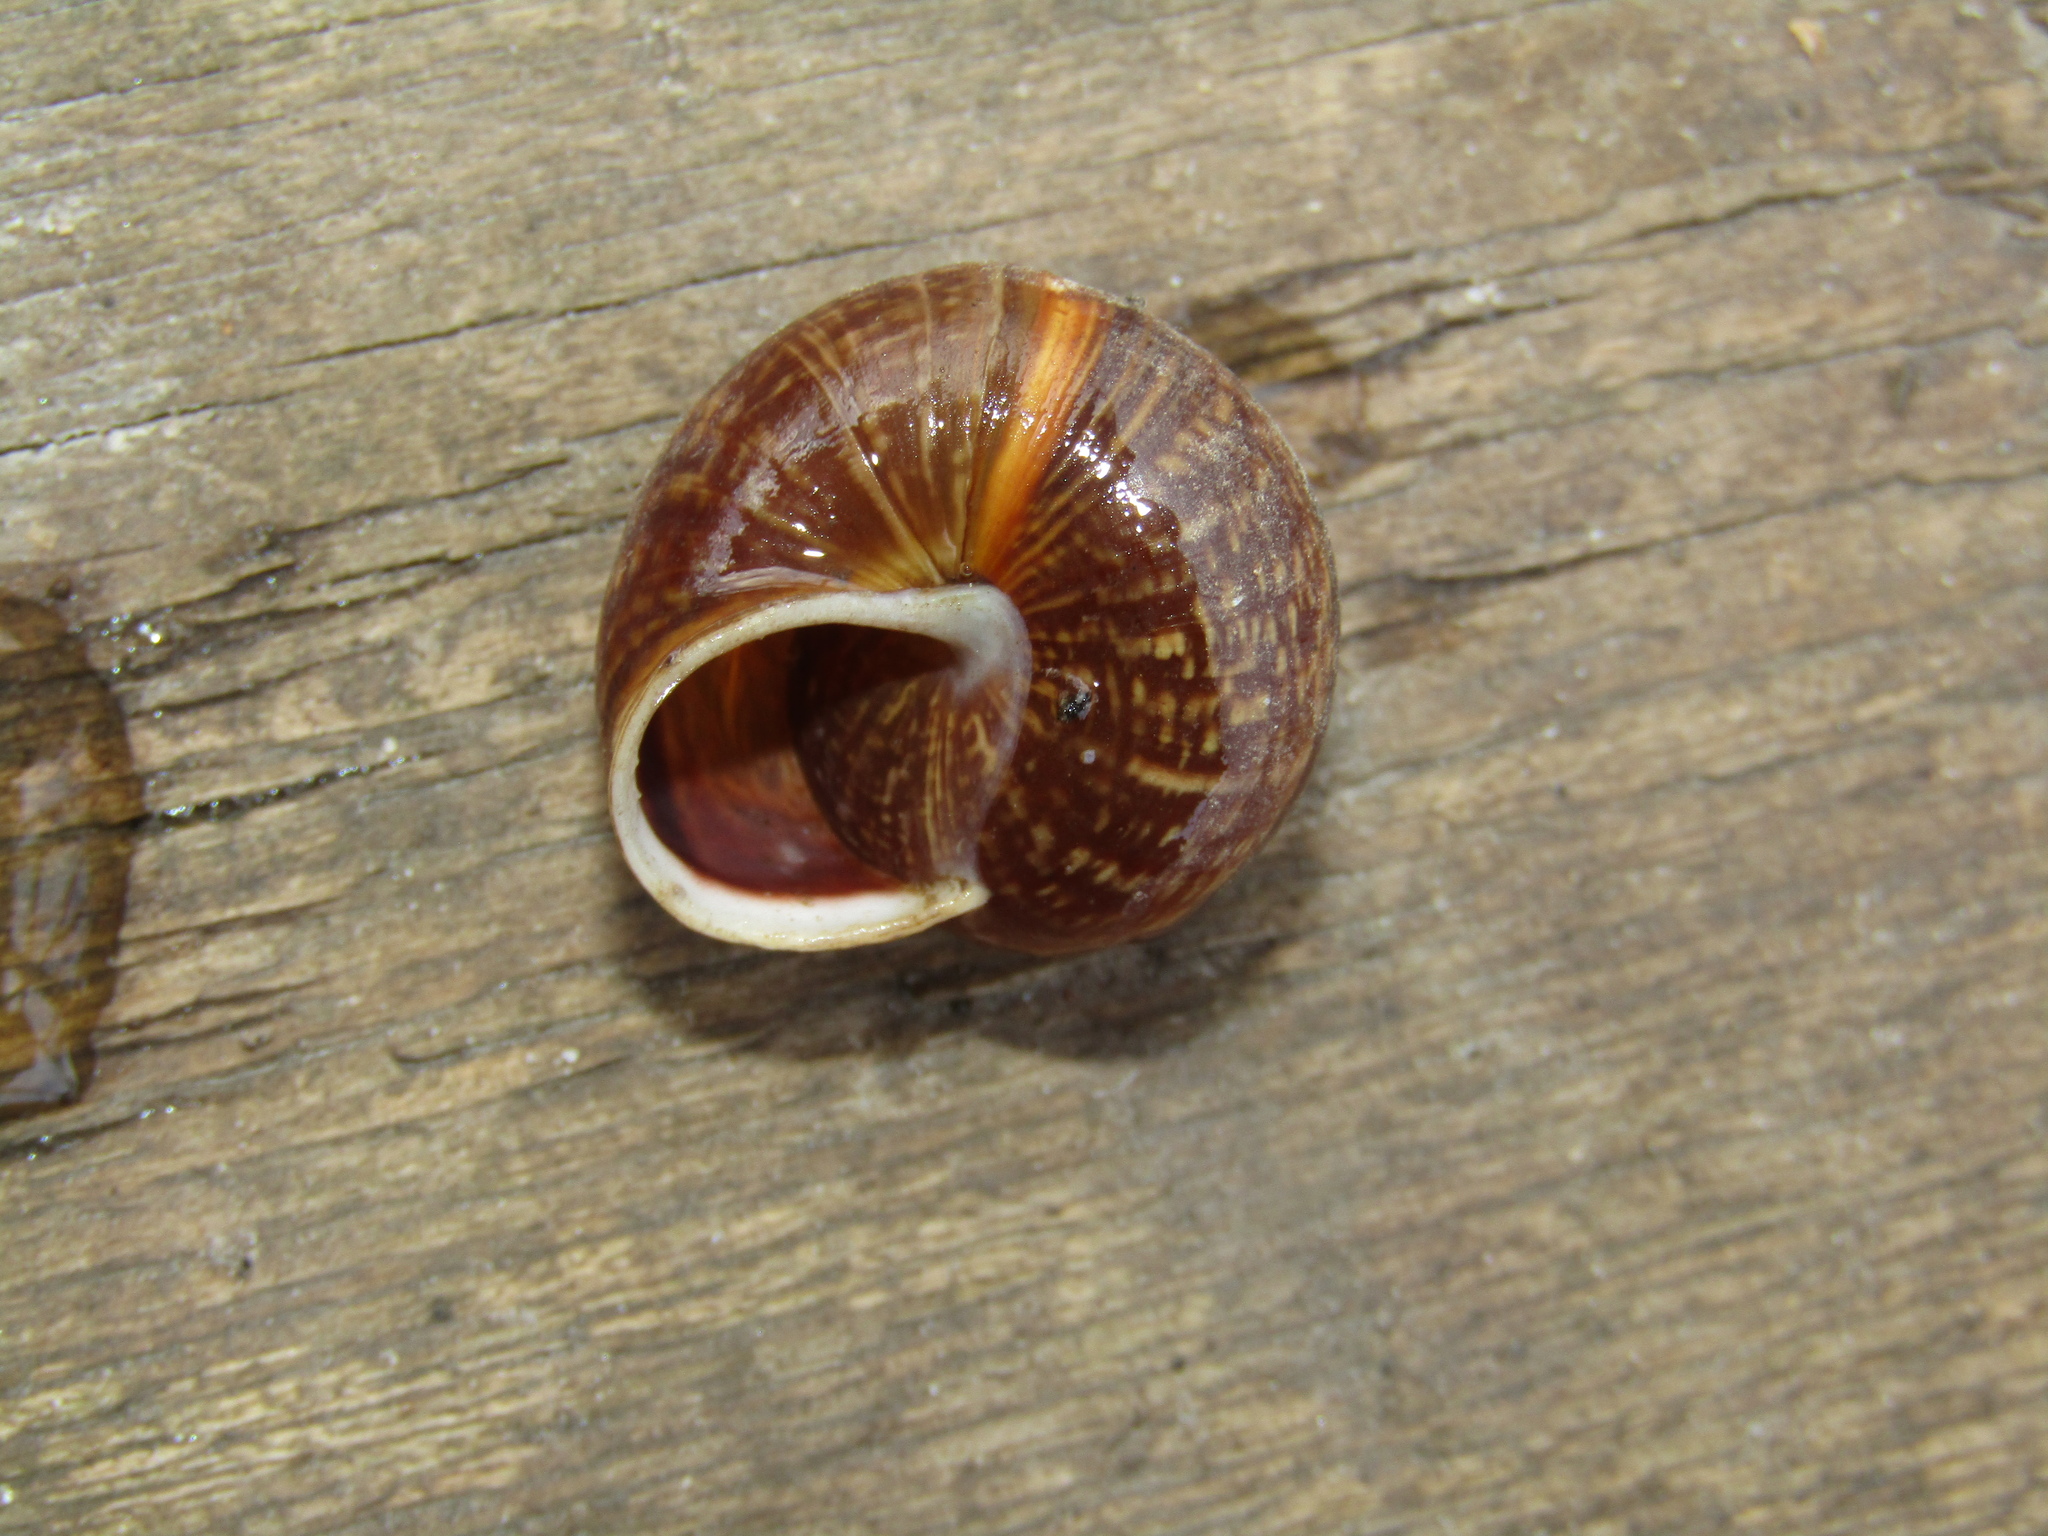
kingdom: Animalia
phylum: Mollusca
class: Gastropoda
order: Stylommatophora
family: Helicidae
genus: Arianta
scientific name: Arianta arbustorum
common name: Copse snail
